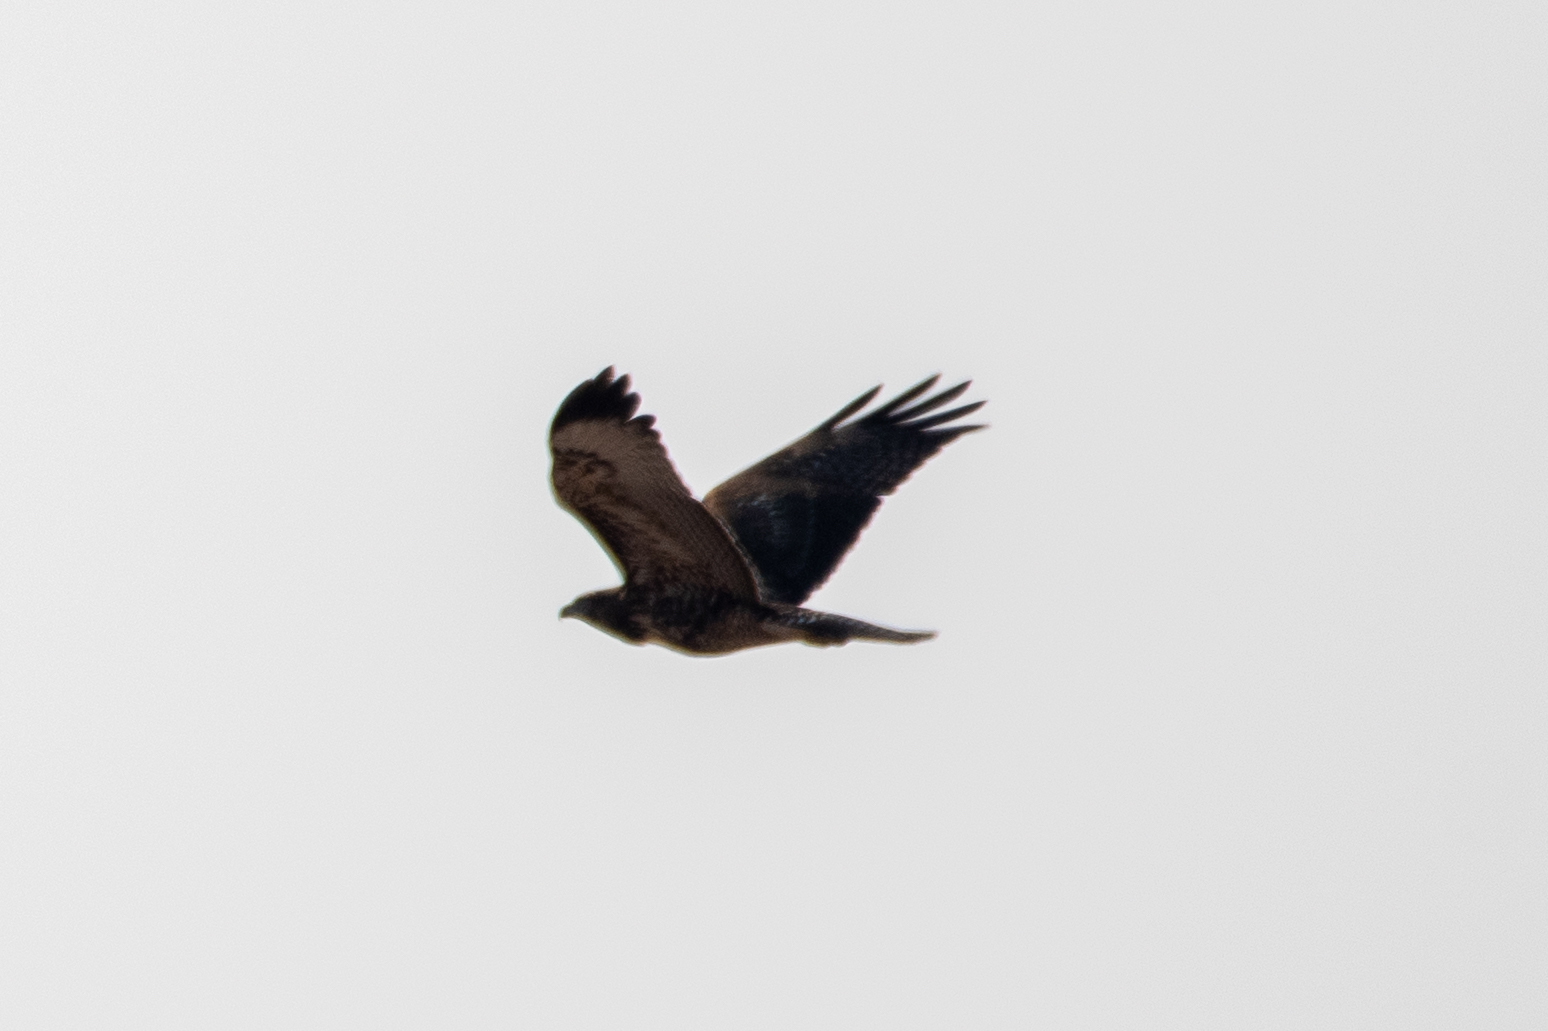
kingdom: Animalia
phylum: Chordata
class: Aves
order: Accipitriformes
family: Accipitridae
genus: Buteo
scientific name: Buteo jamaicensis
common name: Red-tailed hawk
